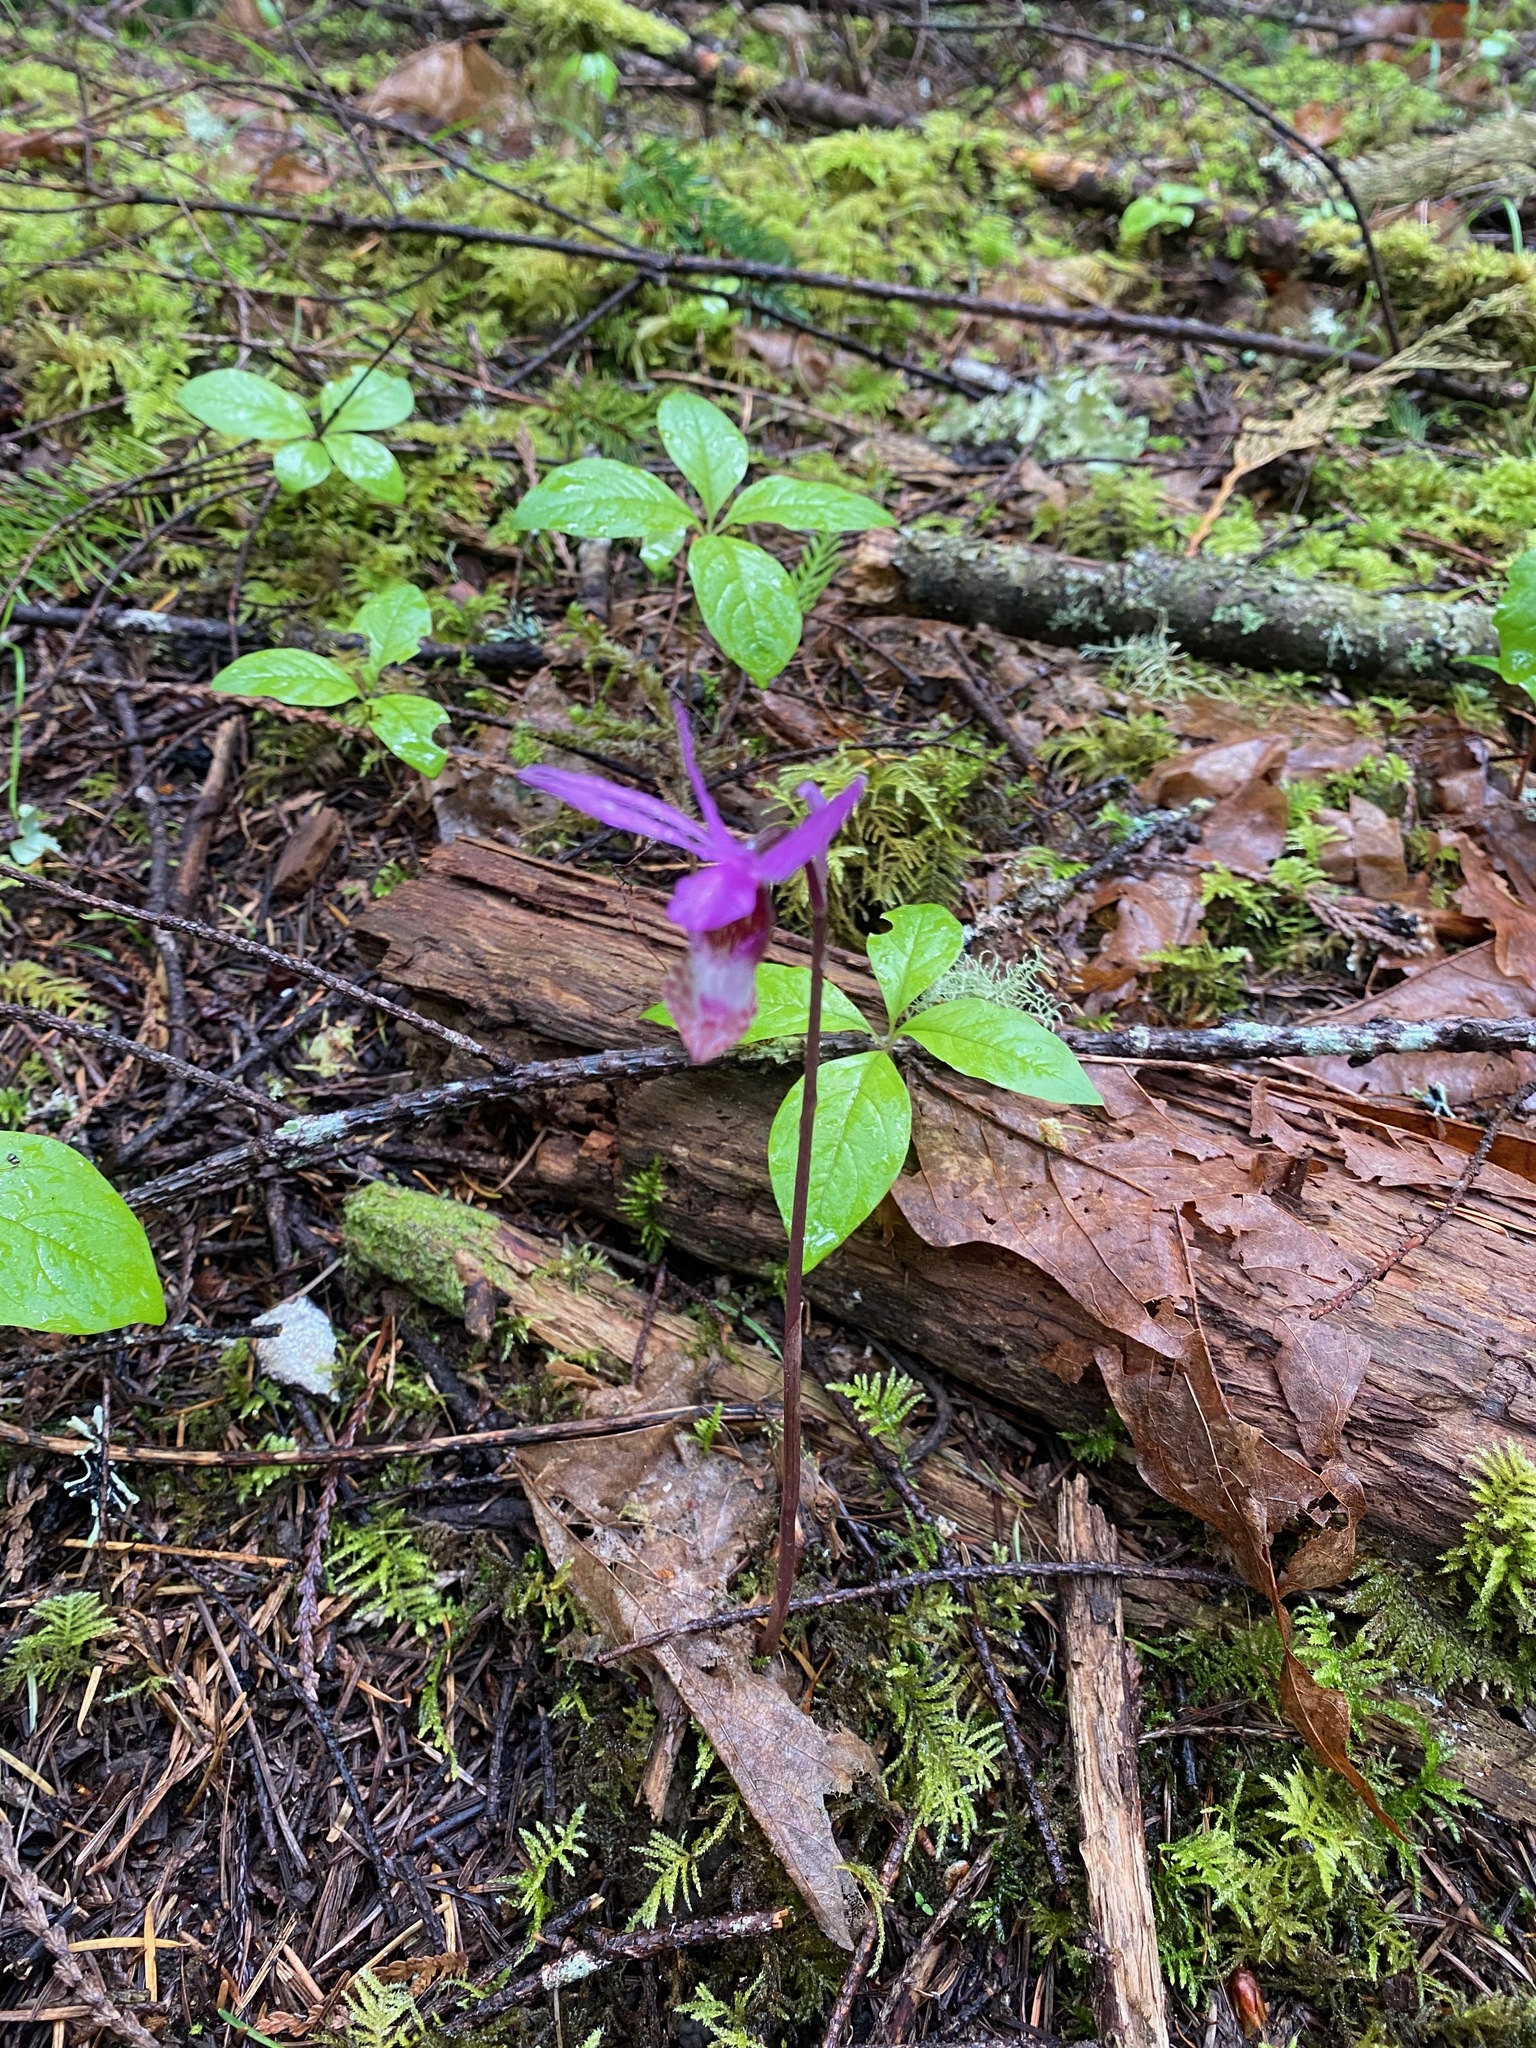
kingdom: Plantae
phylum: Tracheophyta
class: Liliopsida
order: Asparagales
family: Orchidaceae
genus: Calypso
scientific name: Calypso bulbosa
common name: Calypso
